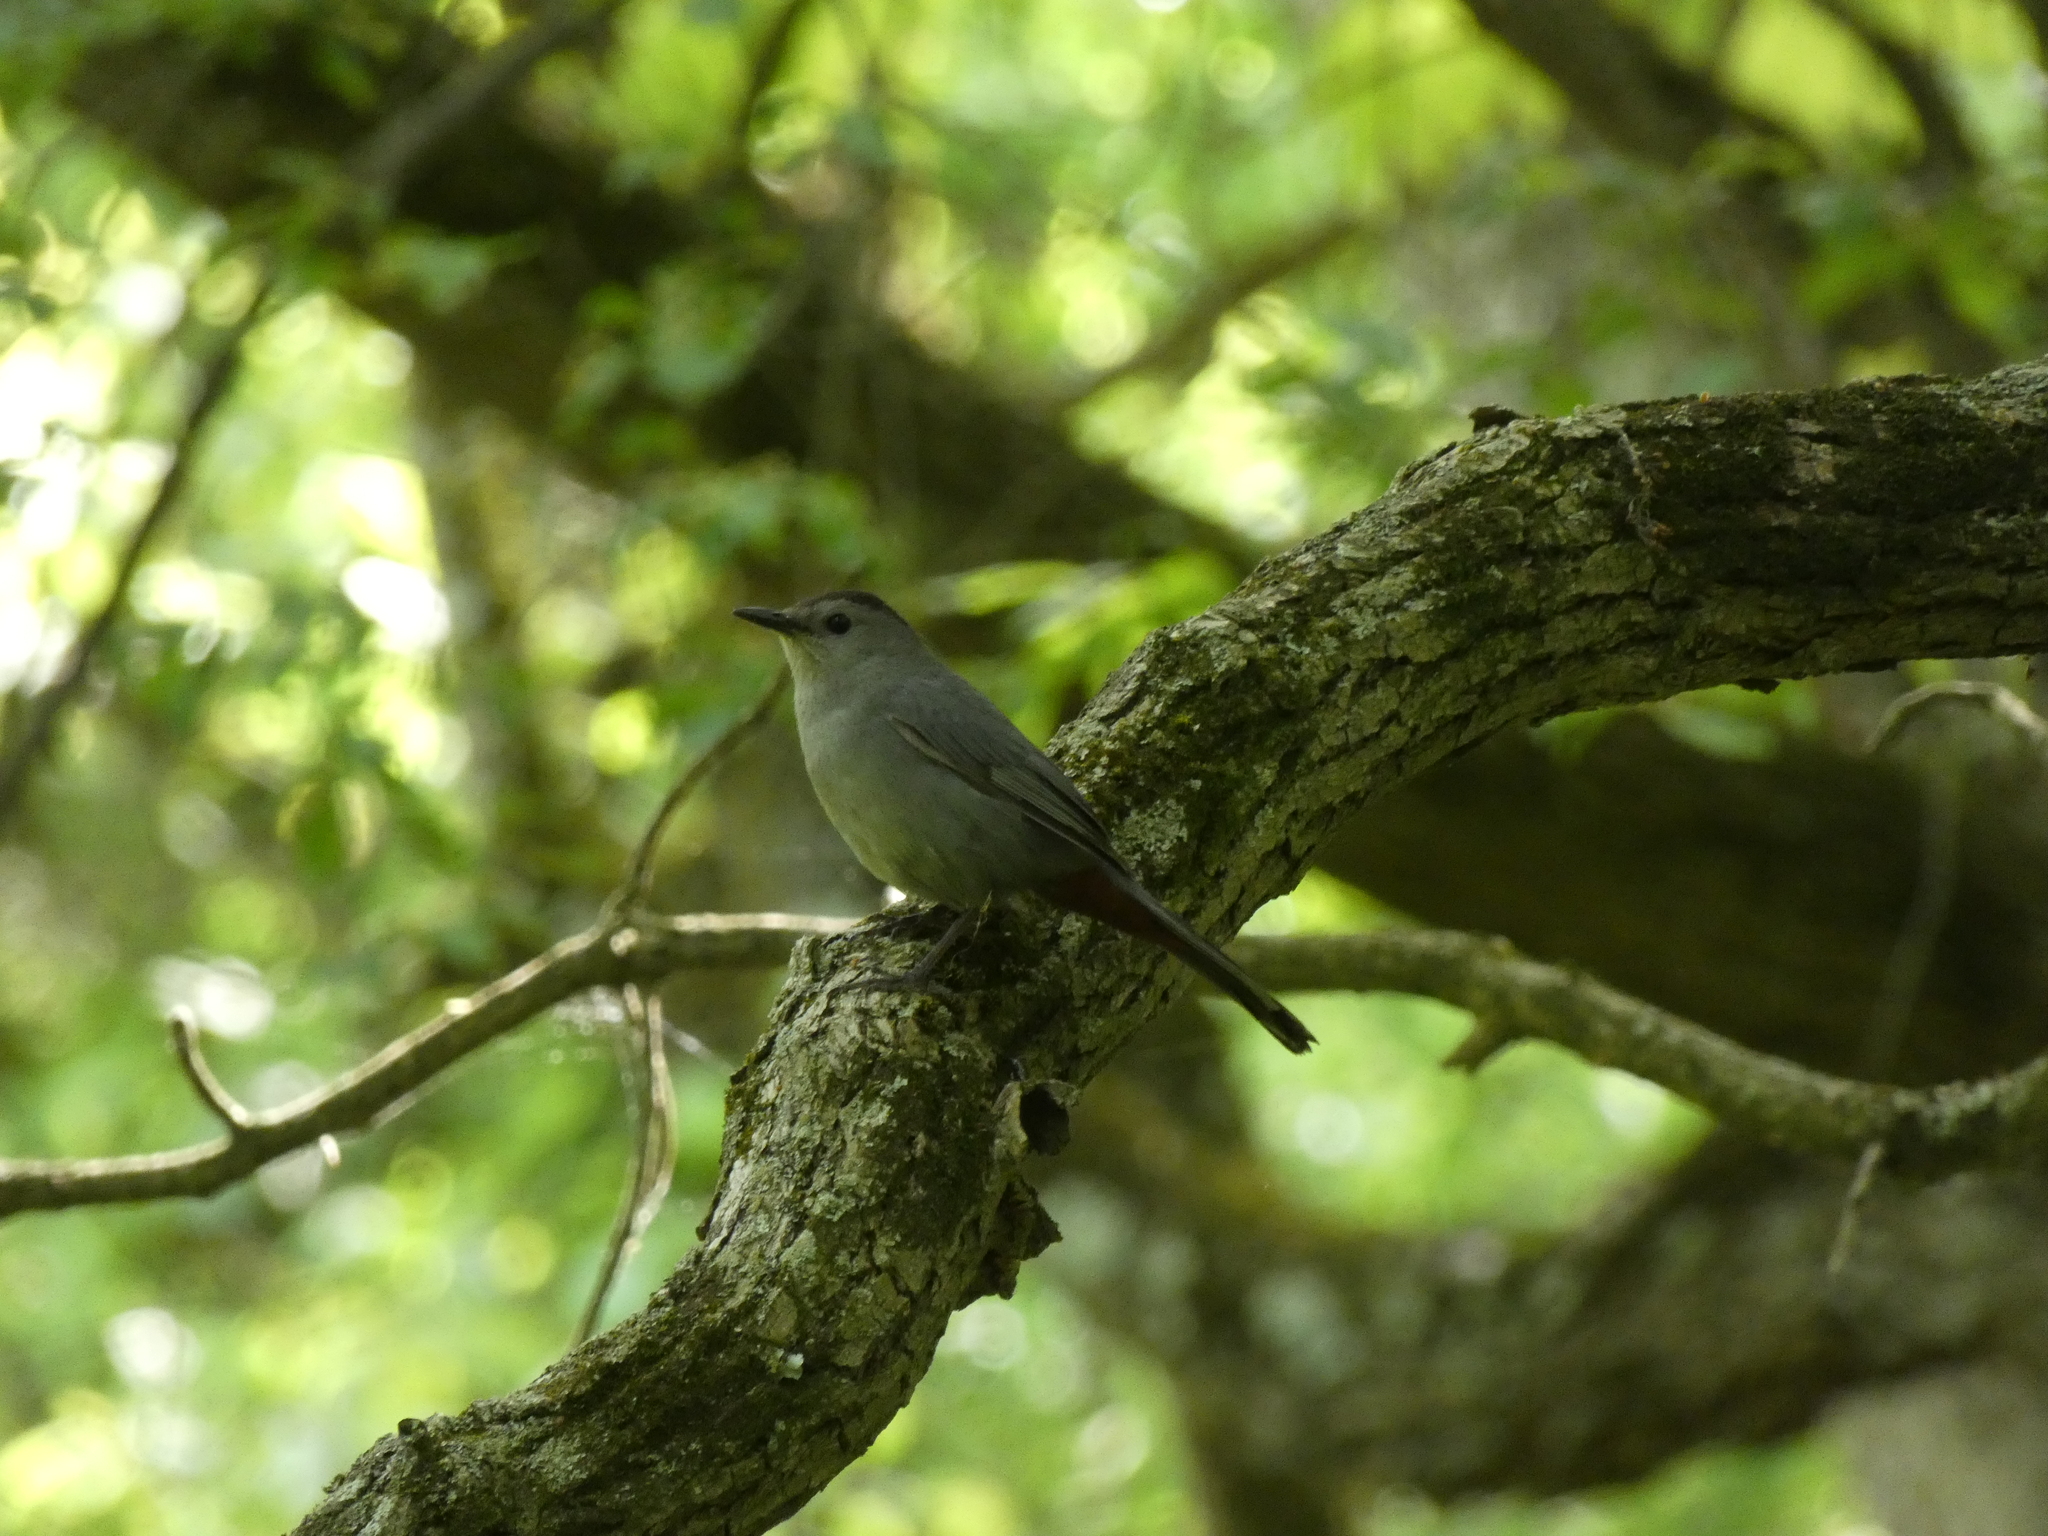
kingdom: Animalia
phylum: Chordata
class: Aves
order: Passeriformes
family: Mimidae
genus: Dumetella
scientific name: Dumetella carolinensis
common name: Gray catbird
